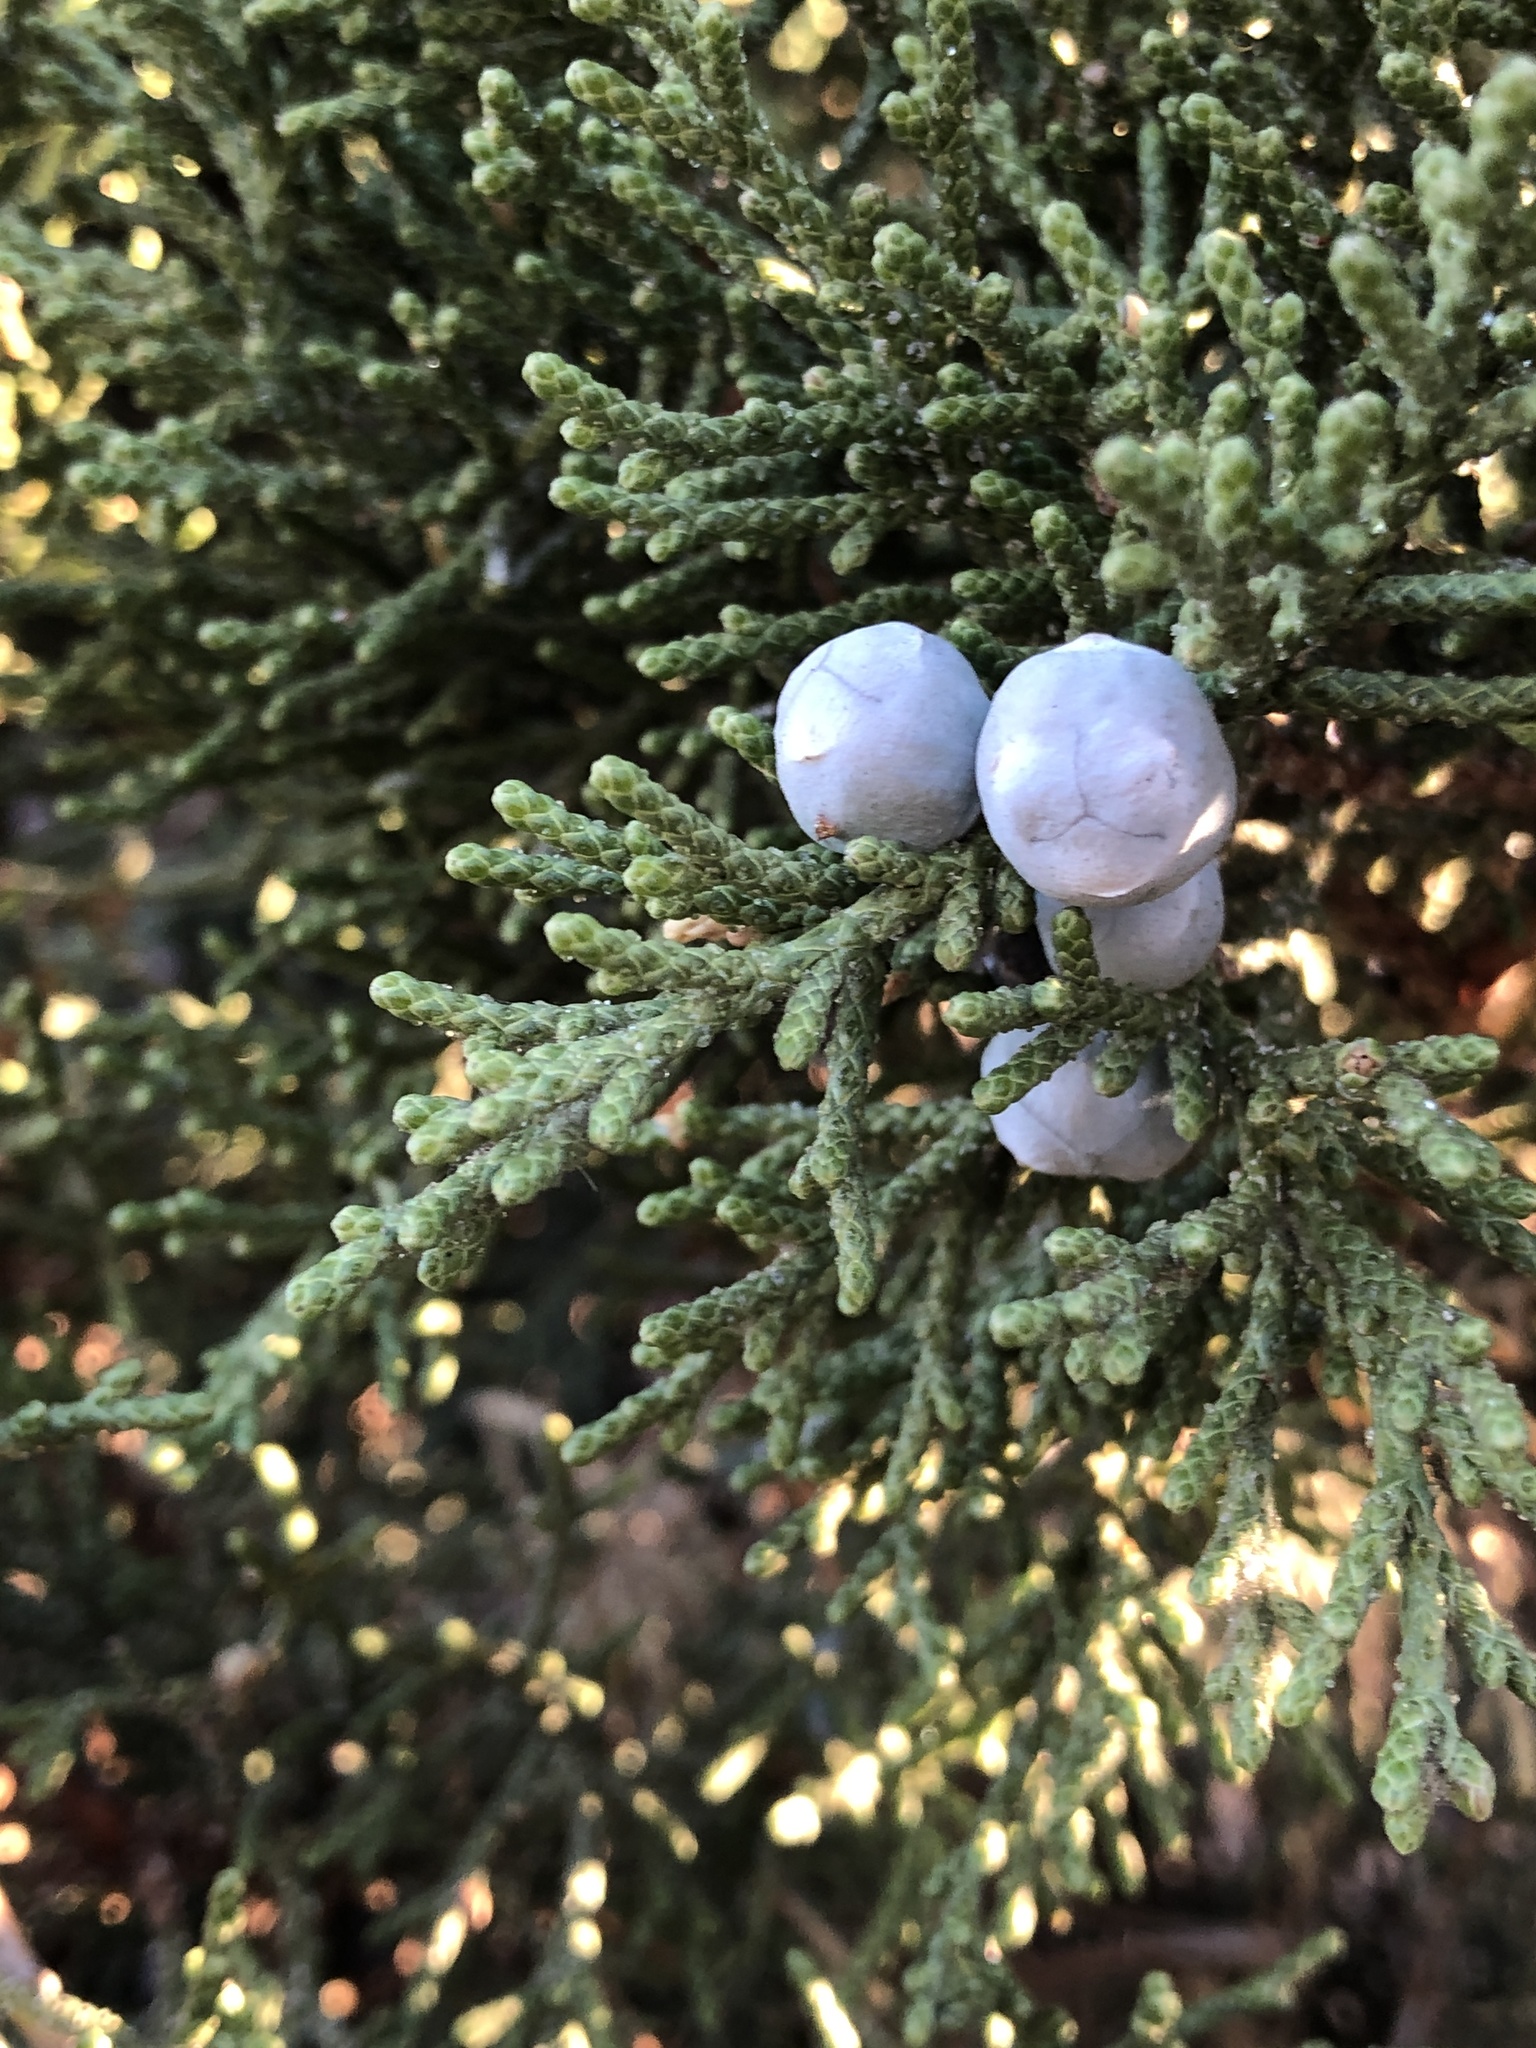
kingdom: Plantae
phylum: Tracheophyta
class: Pinopsida
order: Pinales
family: Cupressaceae
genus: Juniperus
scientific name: Juniperus occidentalis
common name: Western juniper
